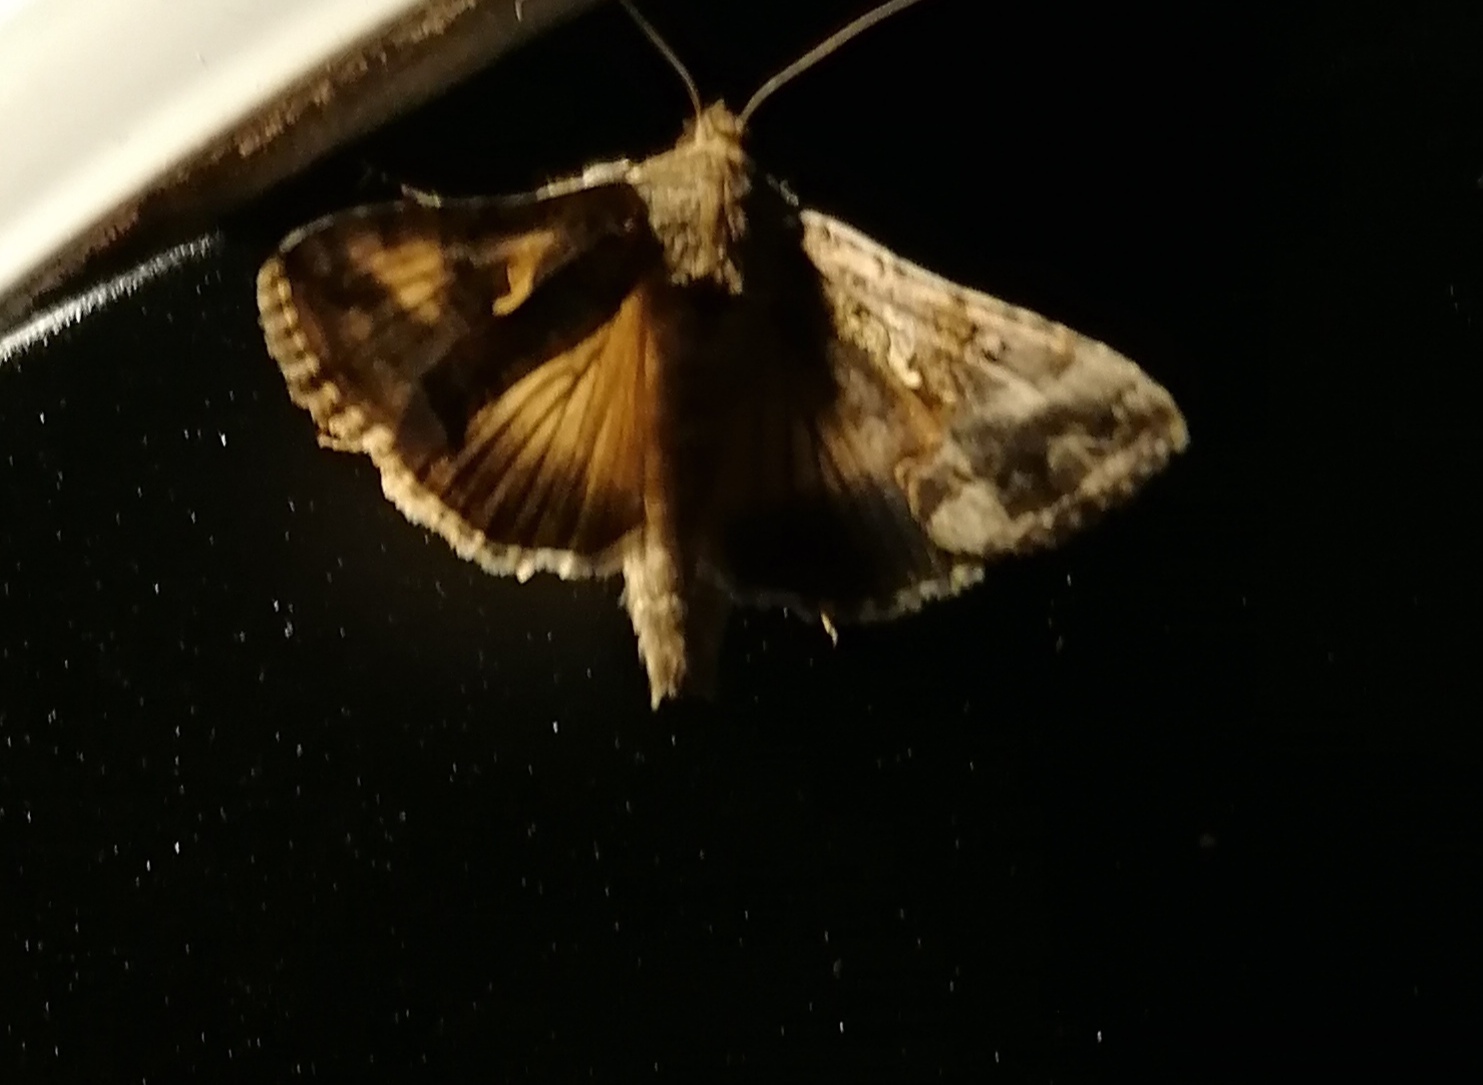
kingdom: Animalia
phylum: Arthropoda
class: Insecta
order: Lepidoptera
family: Noctuidae
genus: Autographa
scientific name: Autographa gamma
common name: Silver y
